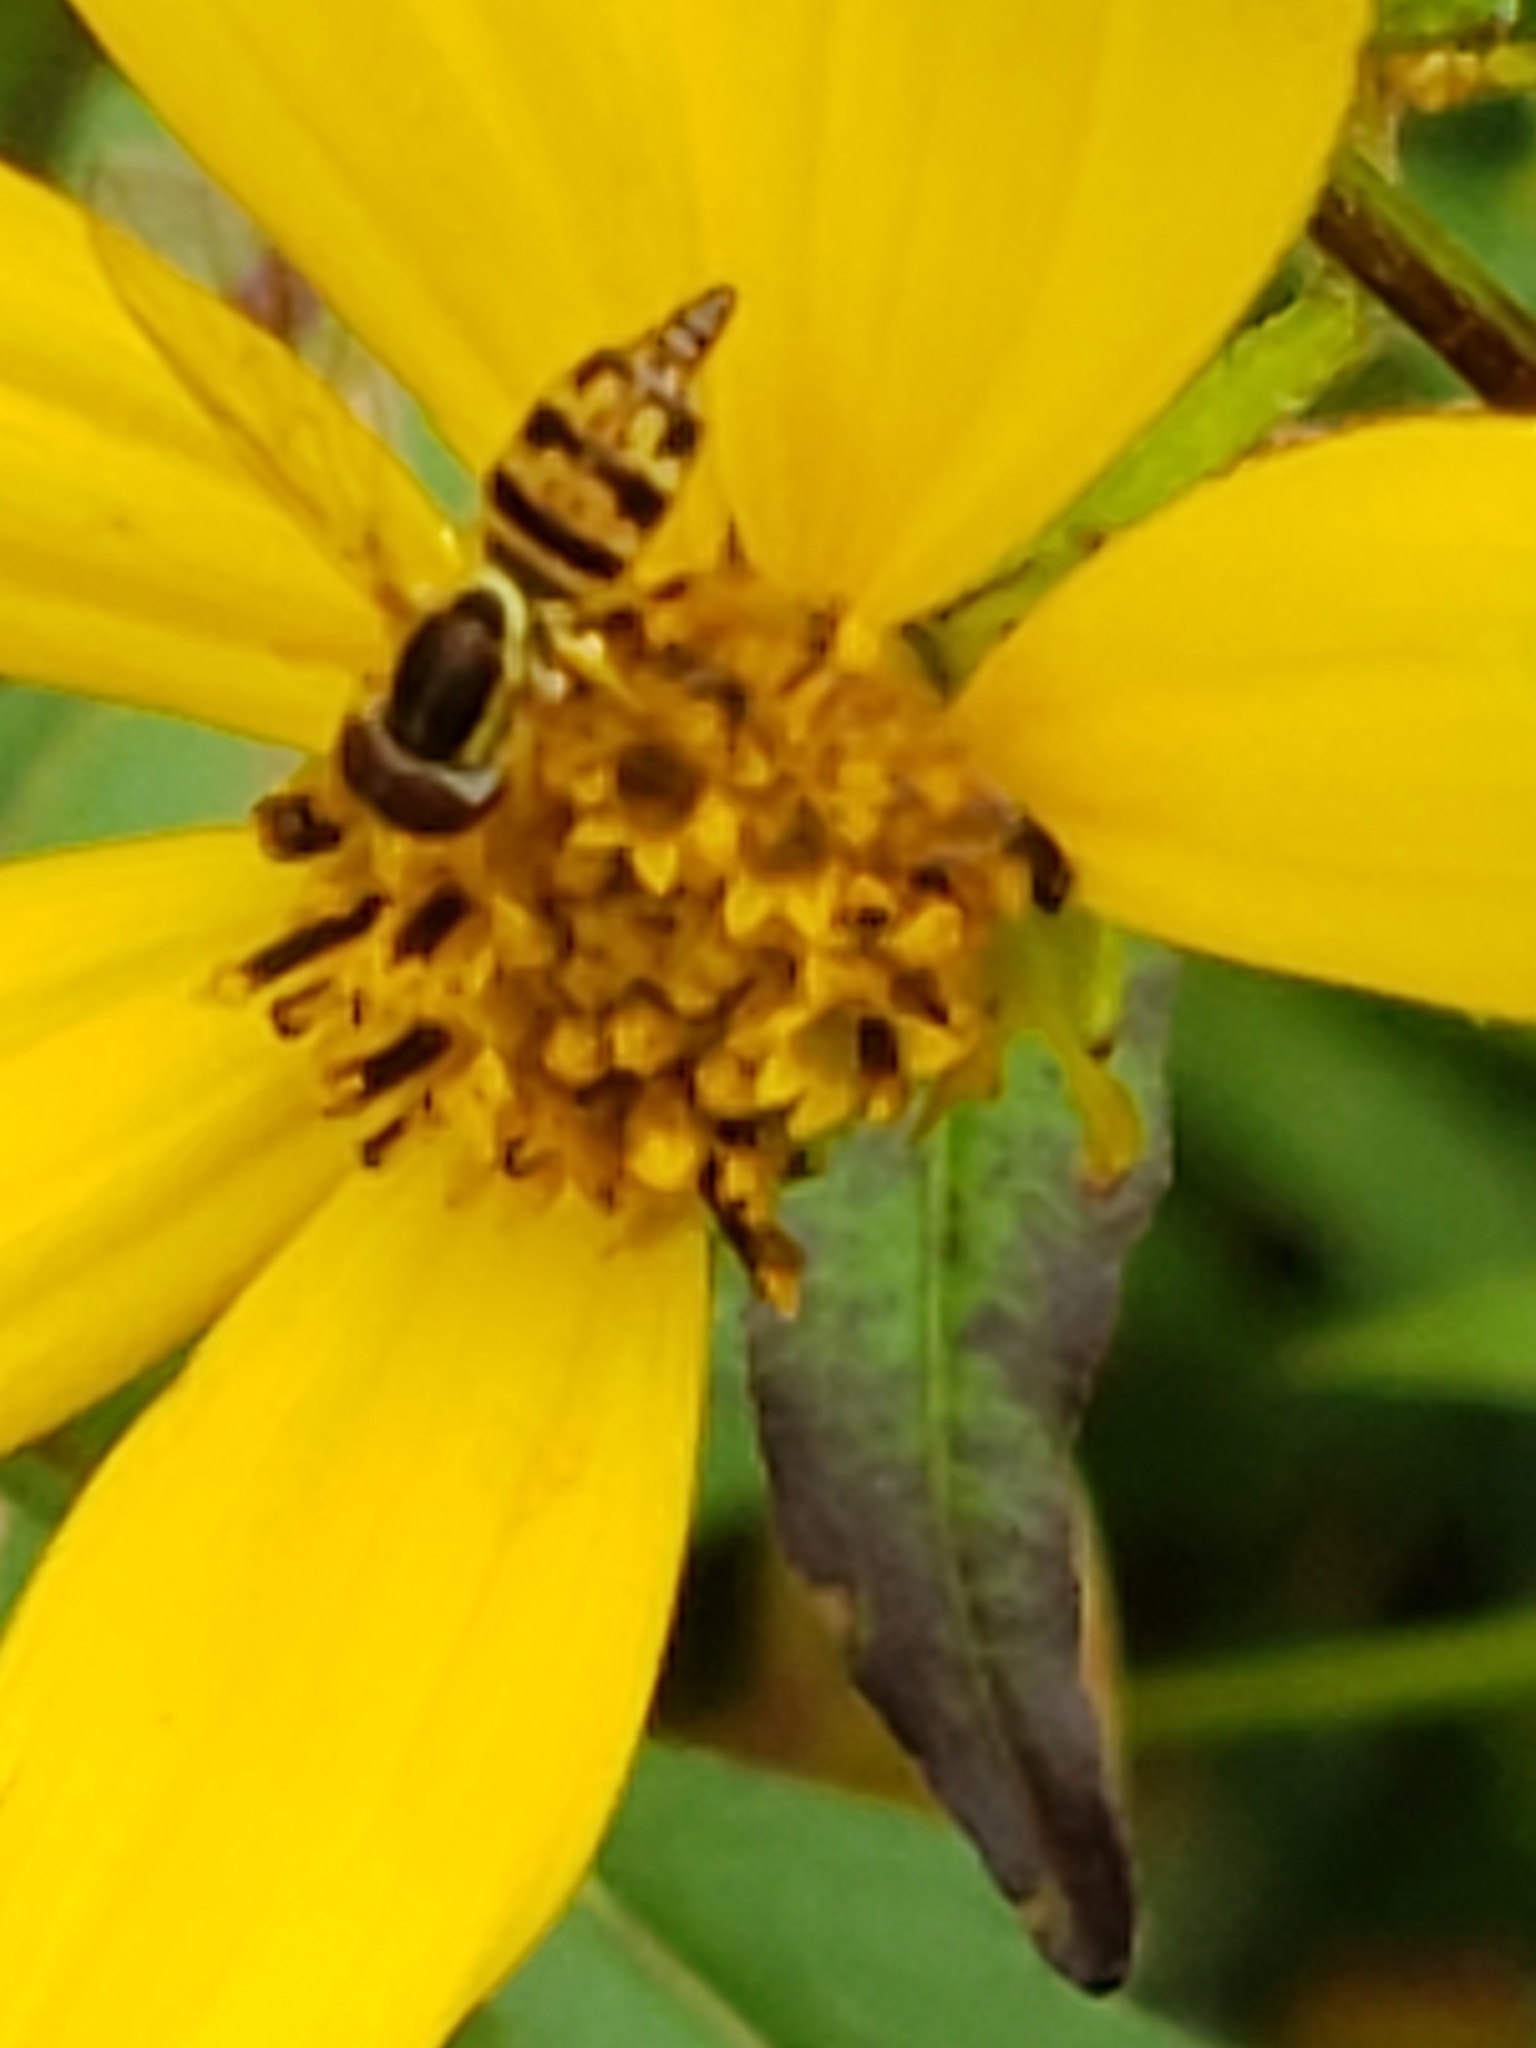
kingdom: Animalia
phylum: Arthropoda
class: Insecta
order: Diptera
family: Syrphidae
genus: Toxomerus
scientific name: Toxomerus geminatus
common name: Eastern calligrapher
